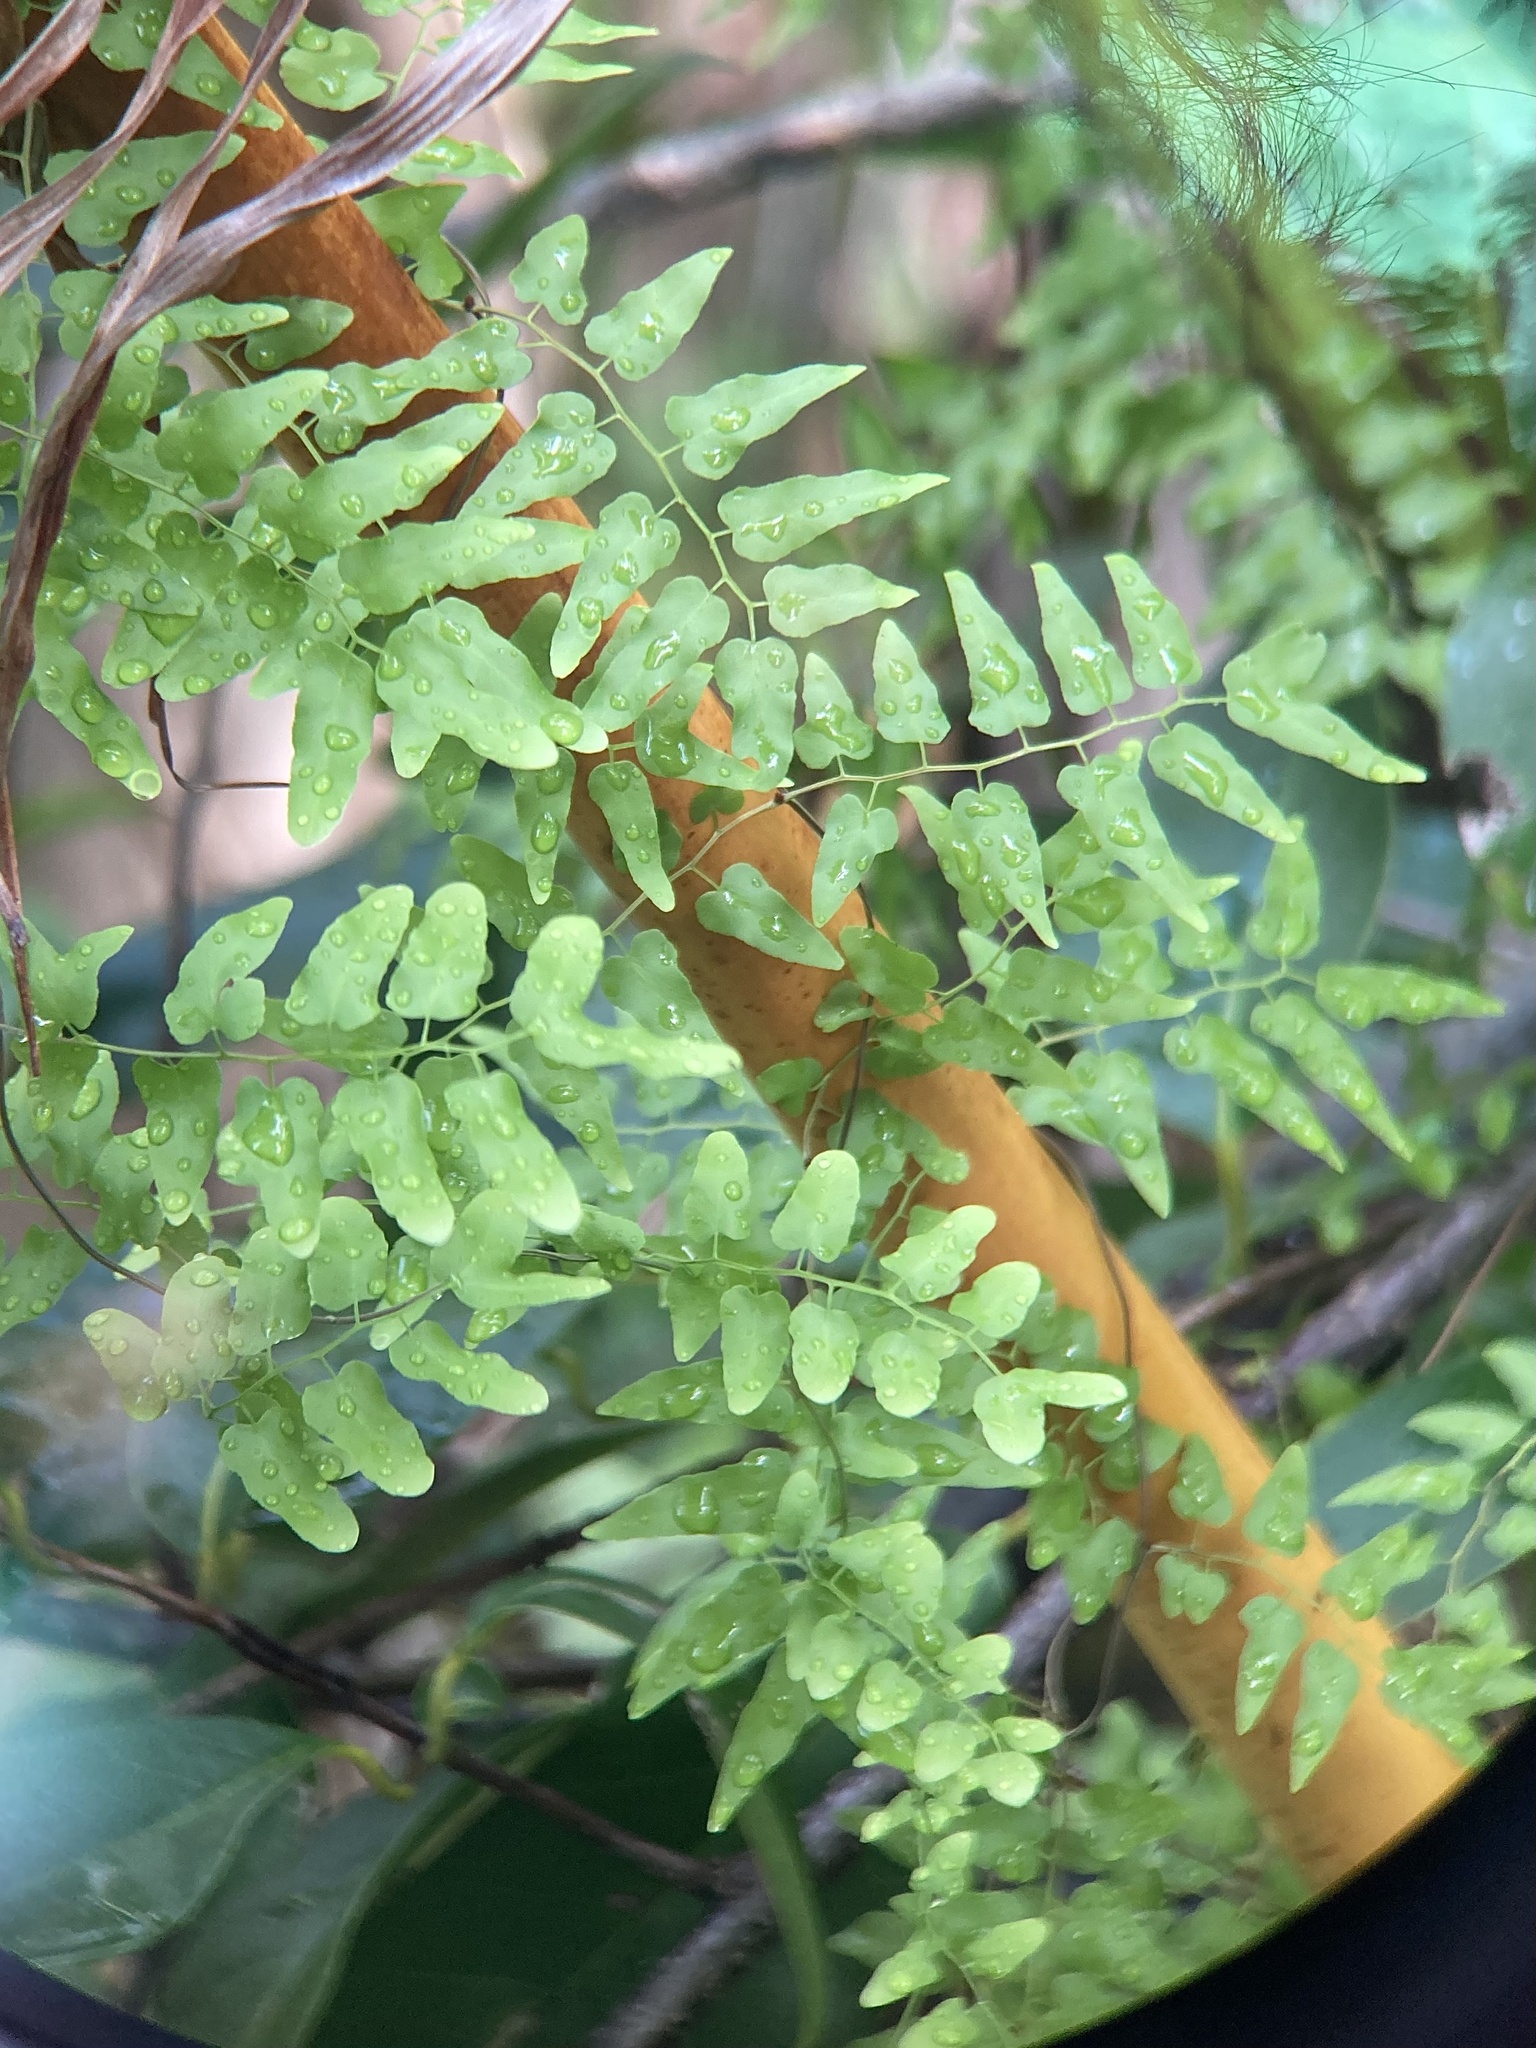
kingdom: Plantae
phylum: Tracheophyta
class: Polypodiopsida
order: Schizaeales
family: Lygodiaceae
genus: Lygodium
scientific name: Lygodium microphyllum
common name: Small-leaf climbing fern
